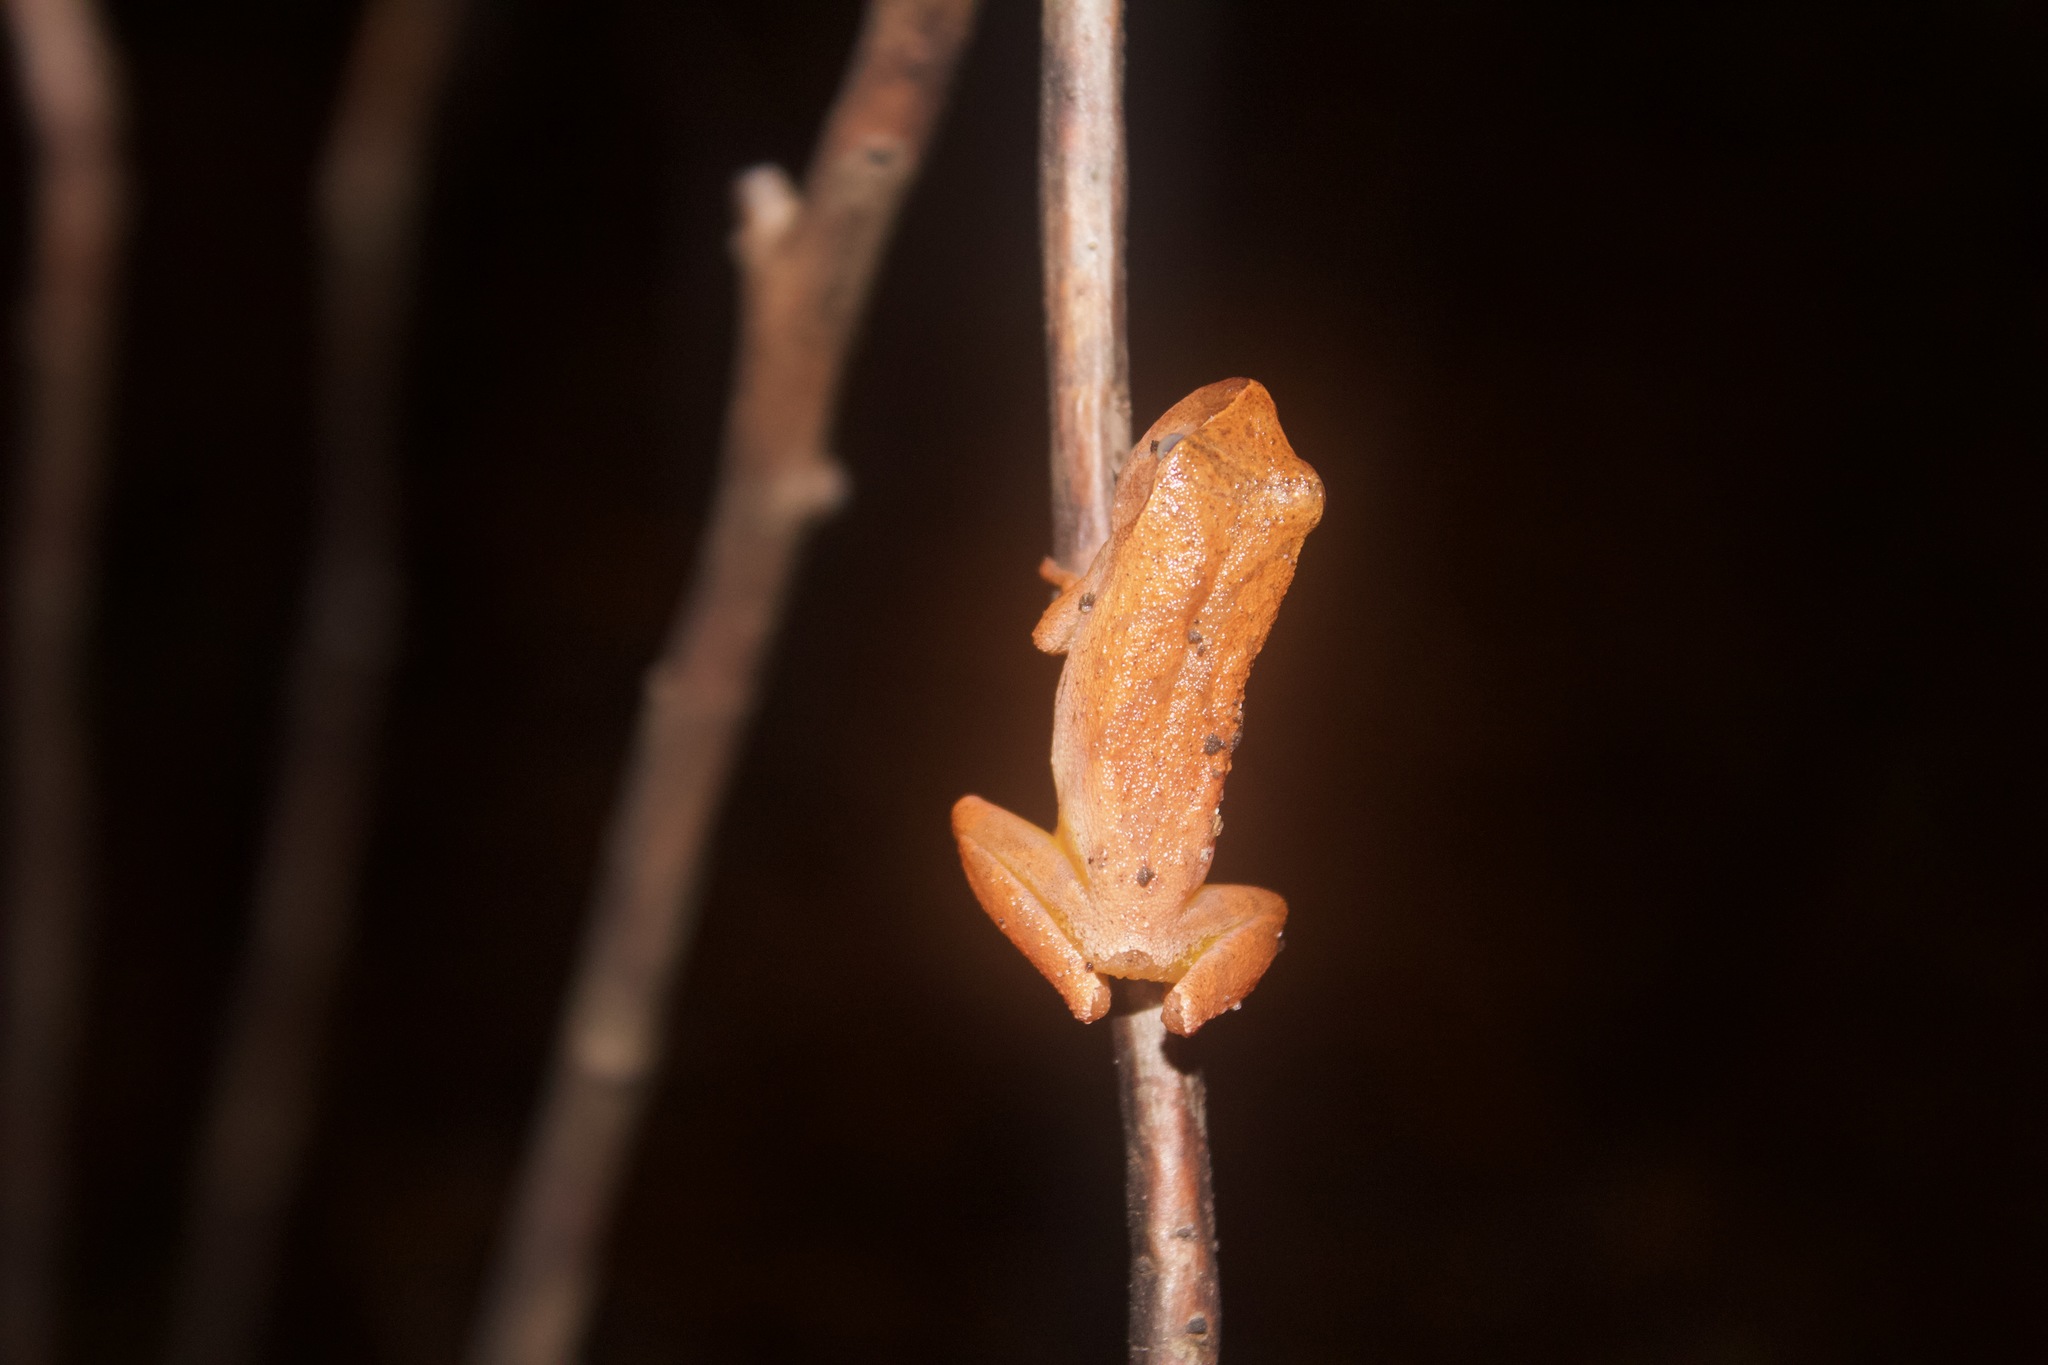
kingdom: Animalia
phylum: Chordata
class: Amphibia
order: Anura
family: Hylidae
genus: Pseudacris
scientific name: Pseudacris crucifer
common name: Spring peeper
